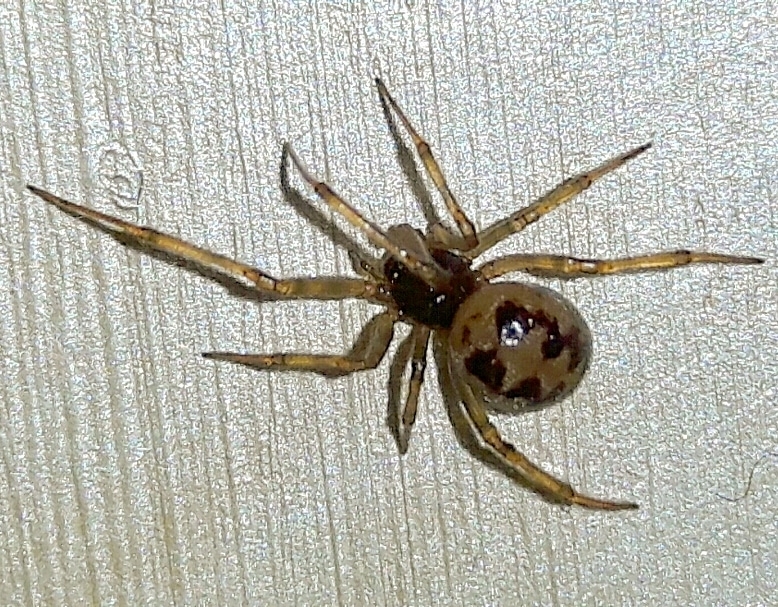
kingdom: Animalia
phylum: Arthropoda
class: Arachnida
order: Araneae
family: Theridiidae
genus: Steatoda
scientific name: Steatoda triangulosa
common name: Triangulate bud spider
